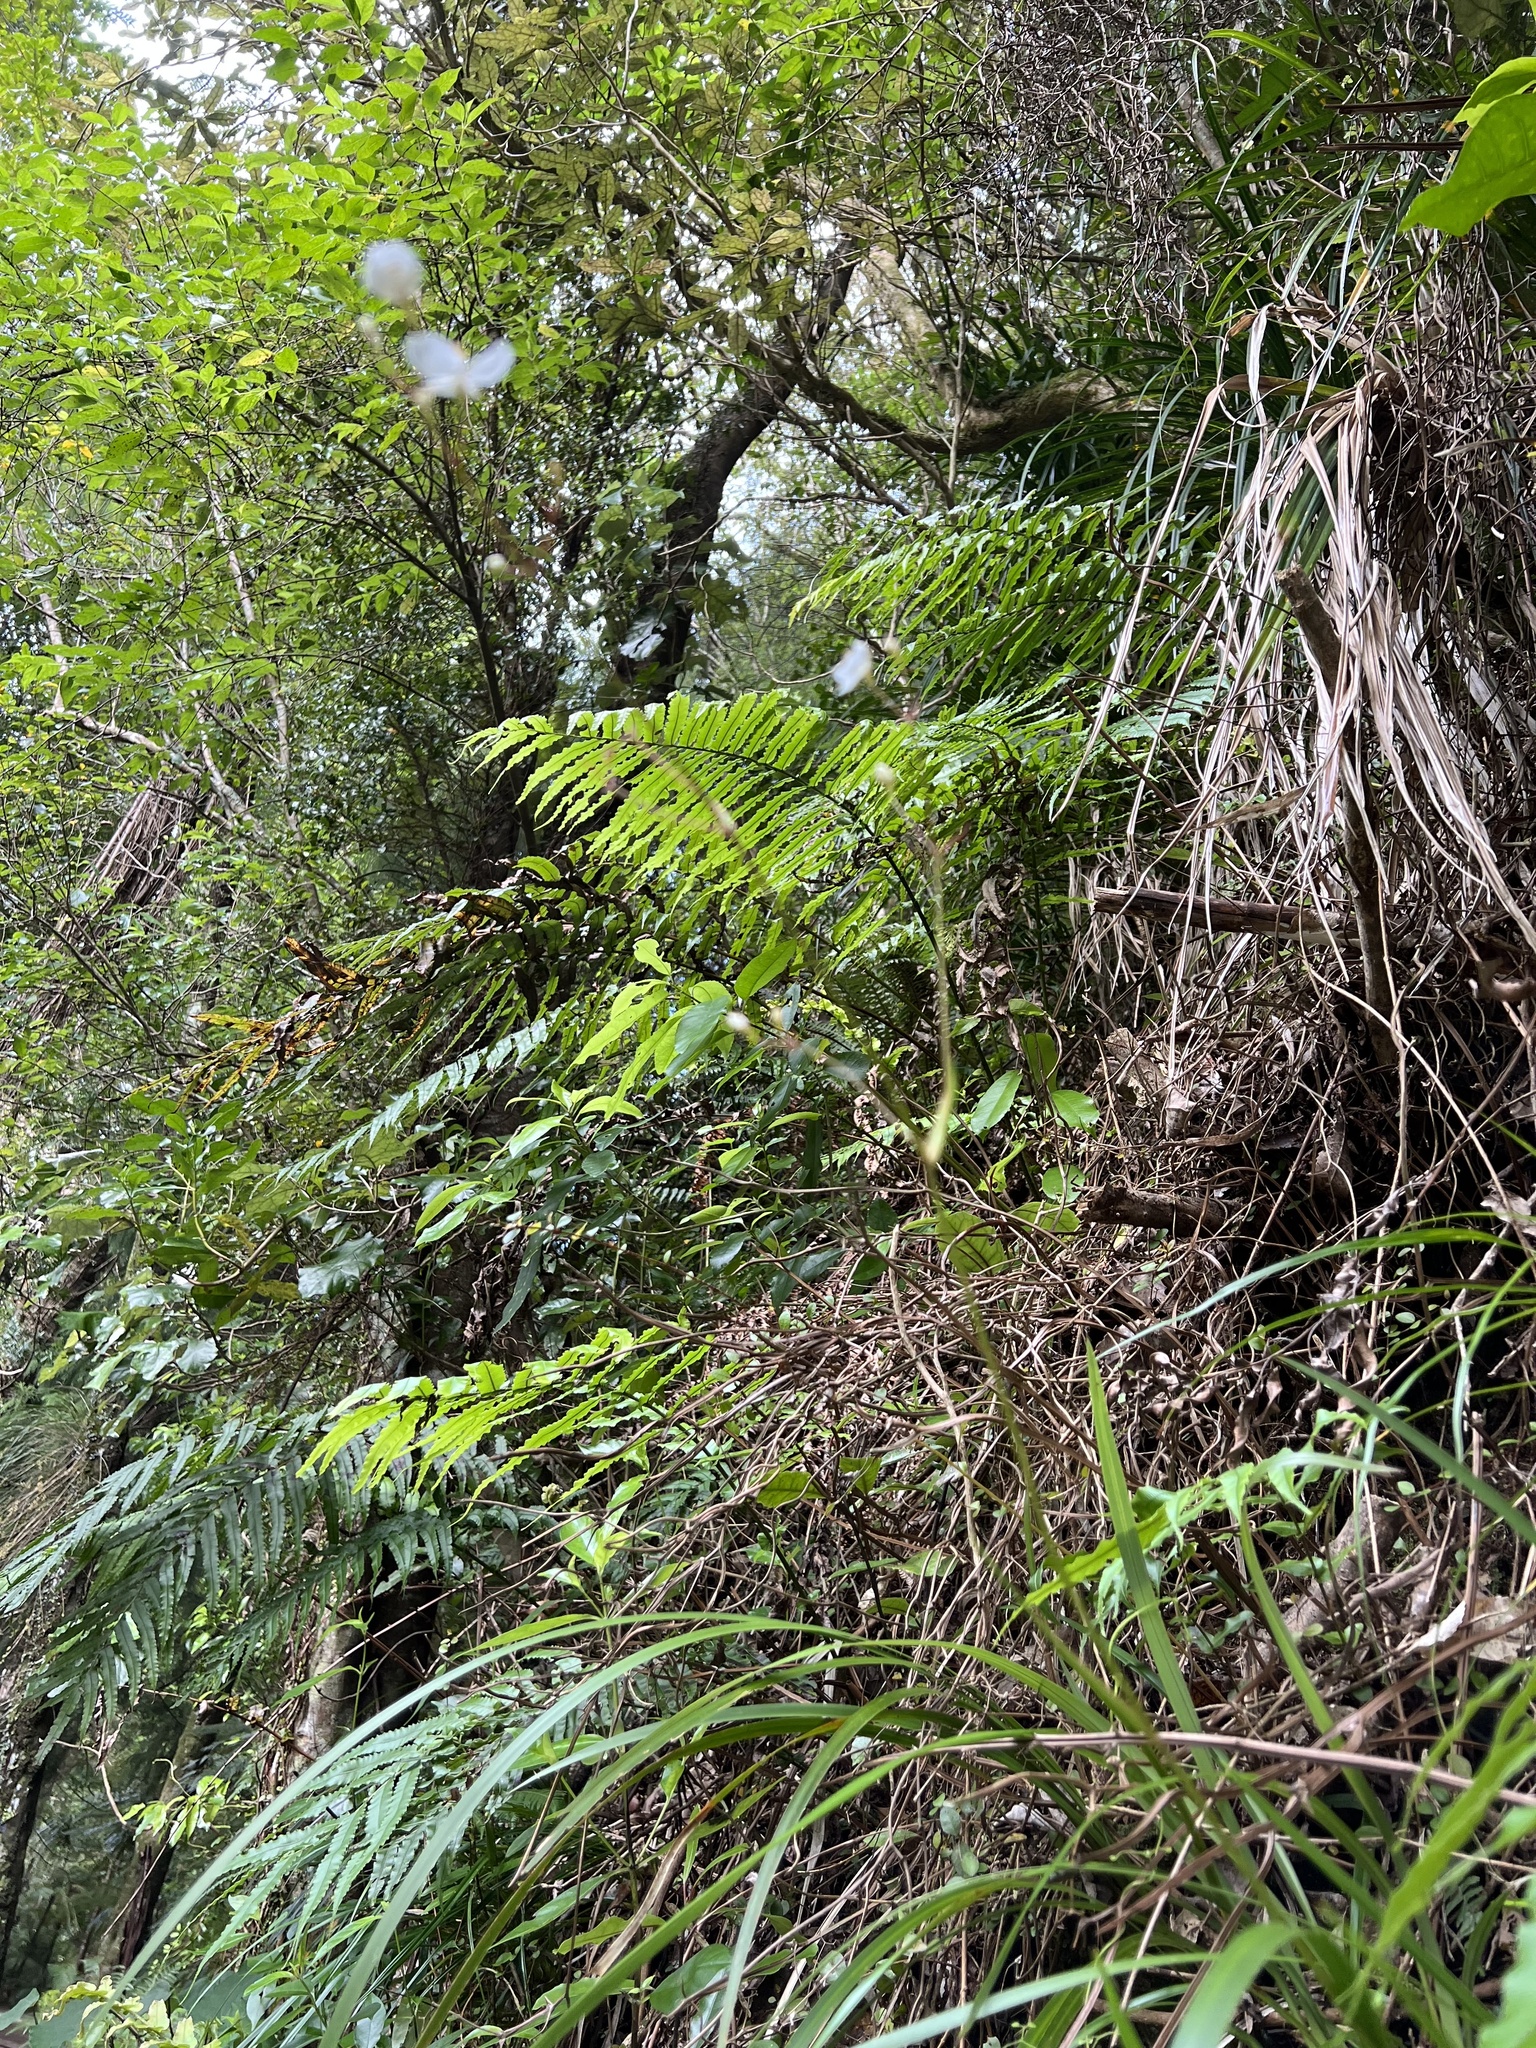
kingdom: Plantae
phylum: Tracheophyta
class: Liliopsida
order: Asparagales
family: Iridaceae
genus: Libertia
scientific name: Libertia grandiflora
